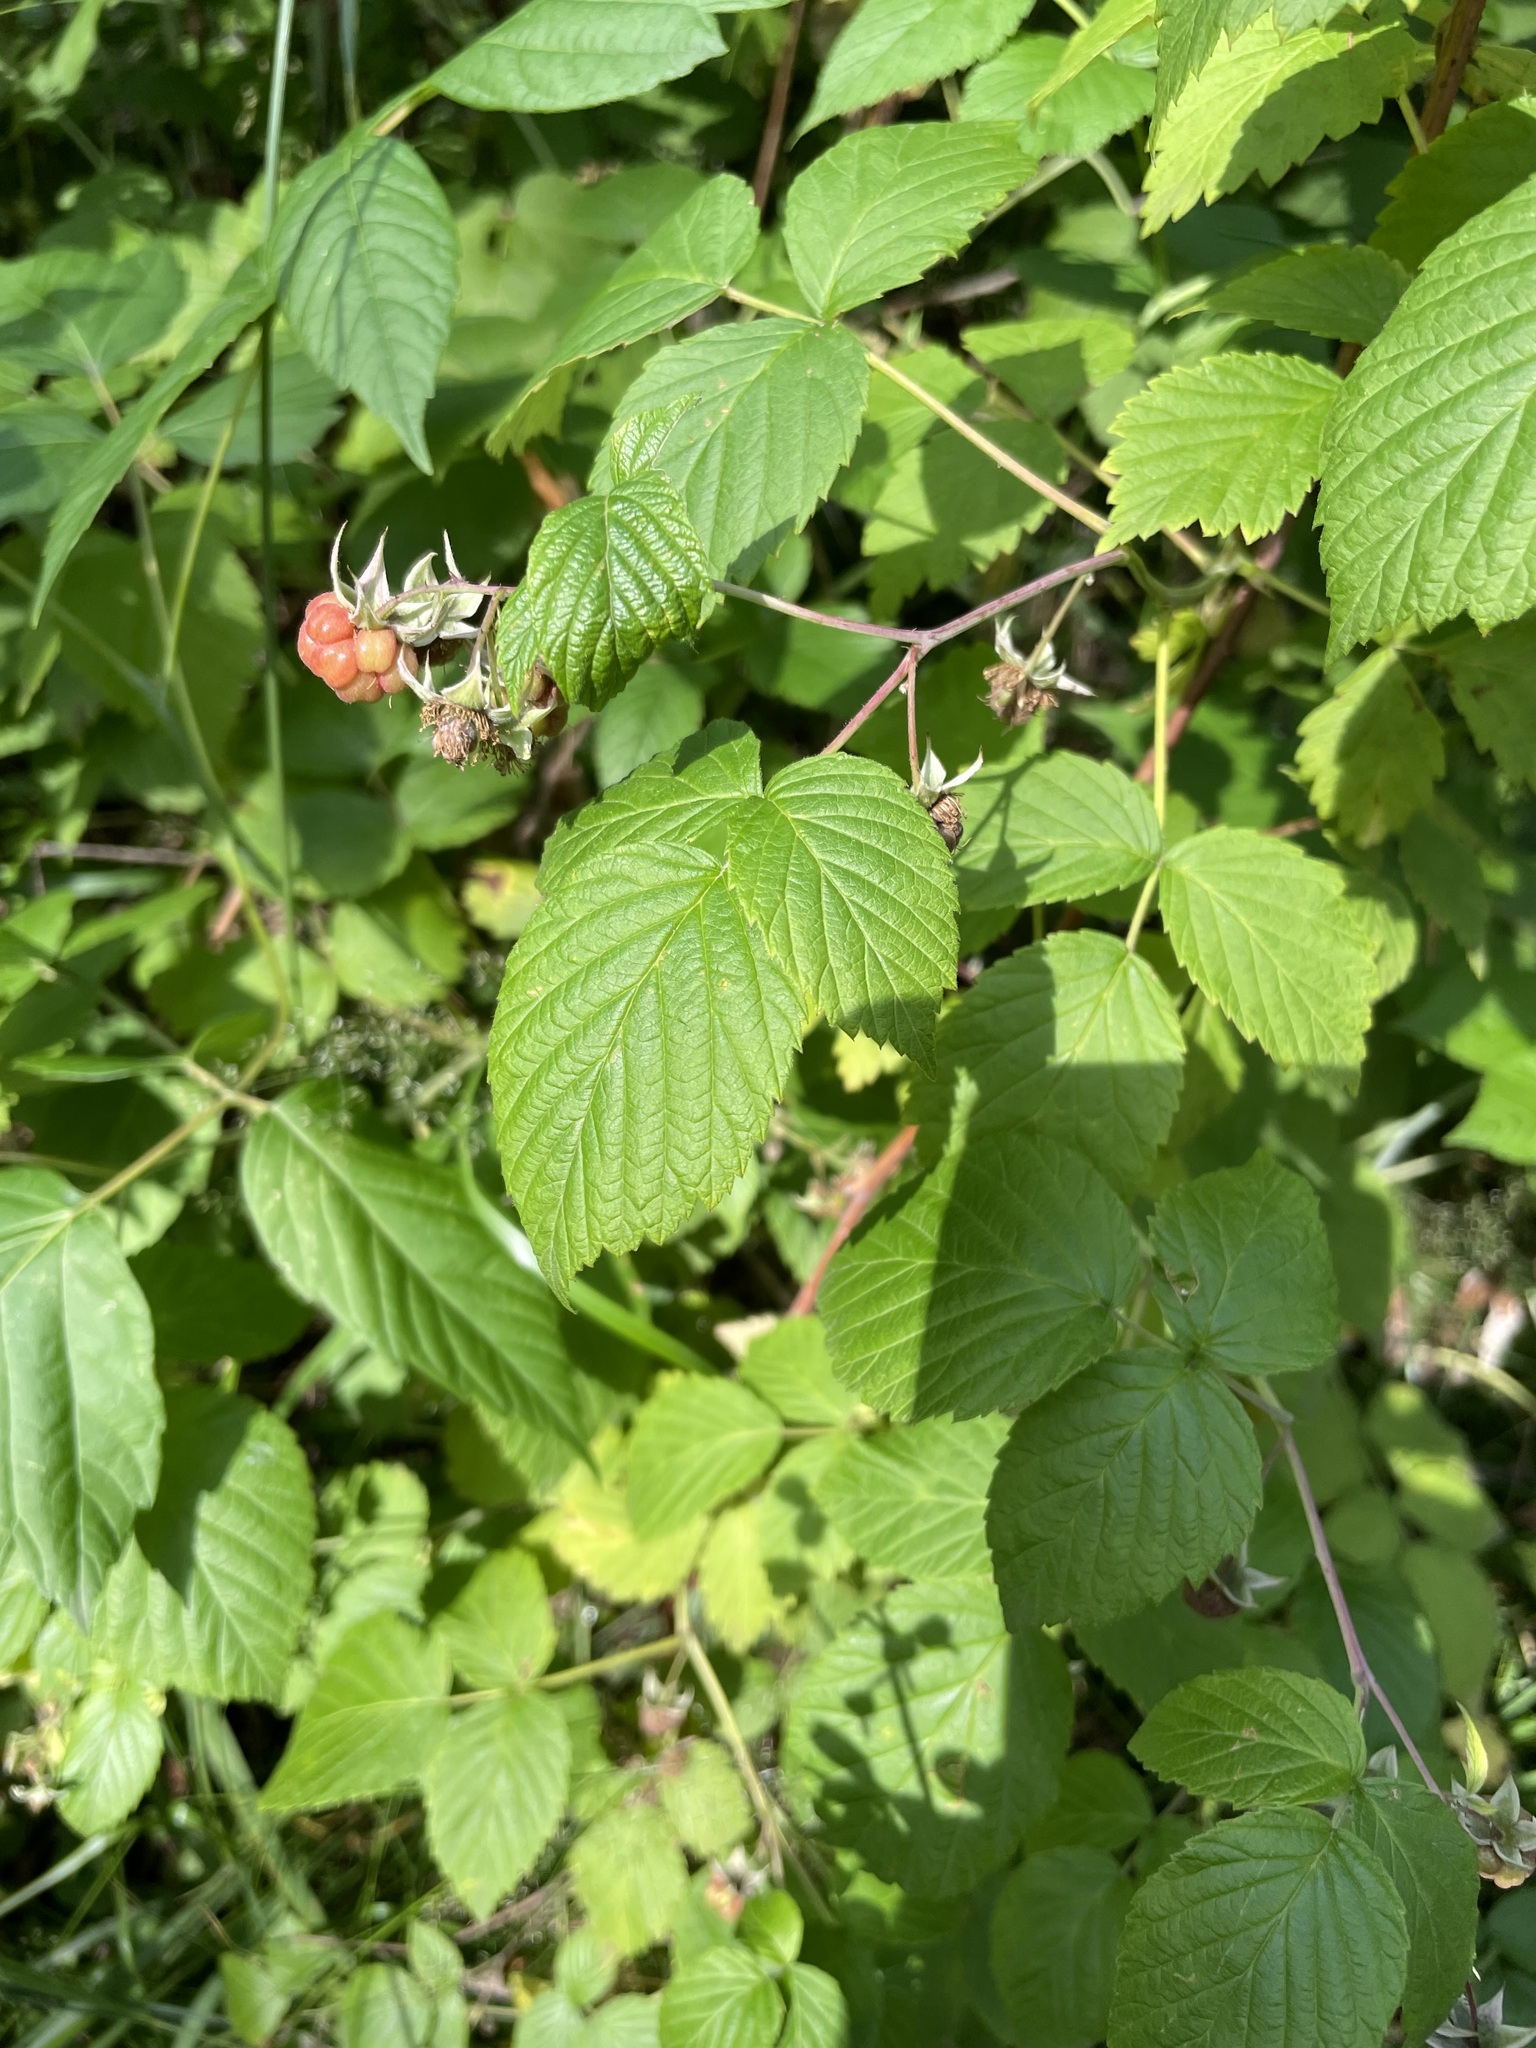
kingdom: Plantae
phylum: Tracheophyta
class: Magnoliopsida
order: Rosales
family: Rosaceae
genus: Rubus
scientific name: Rubus idaeus
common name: Raspberry
